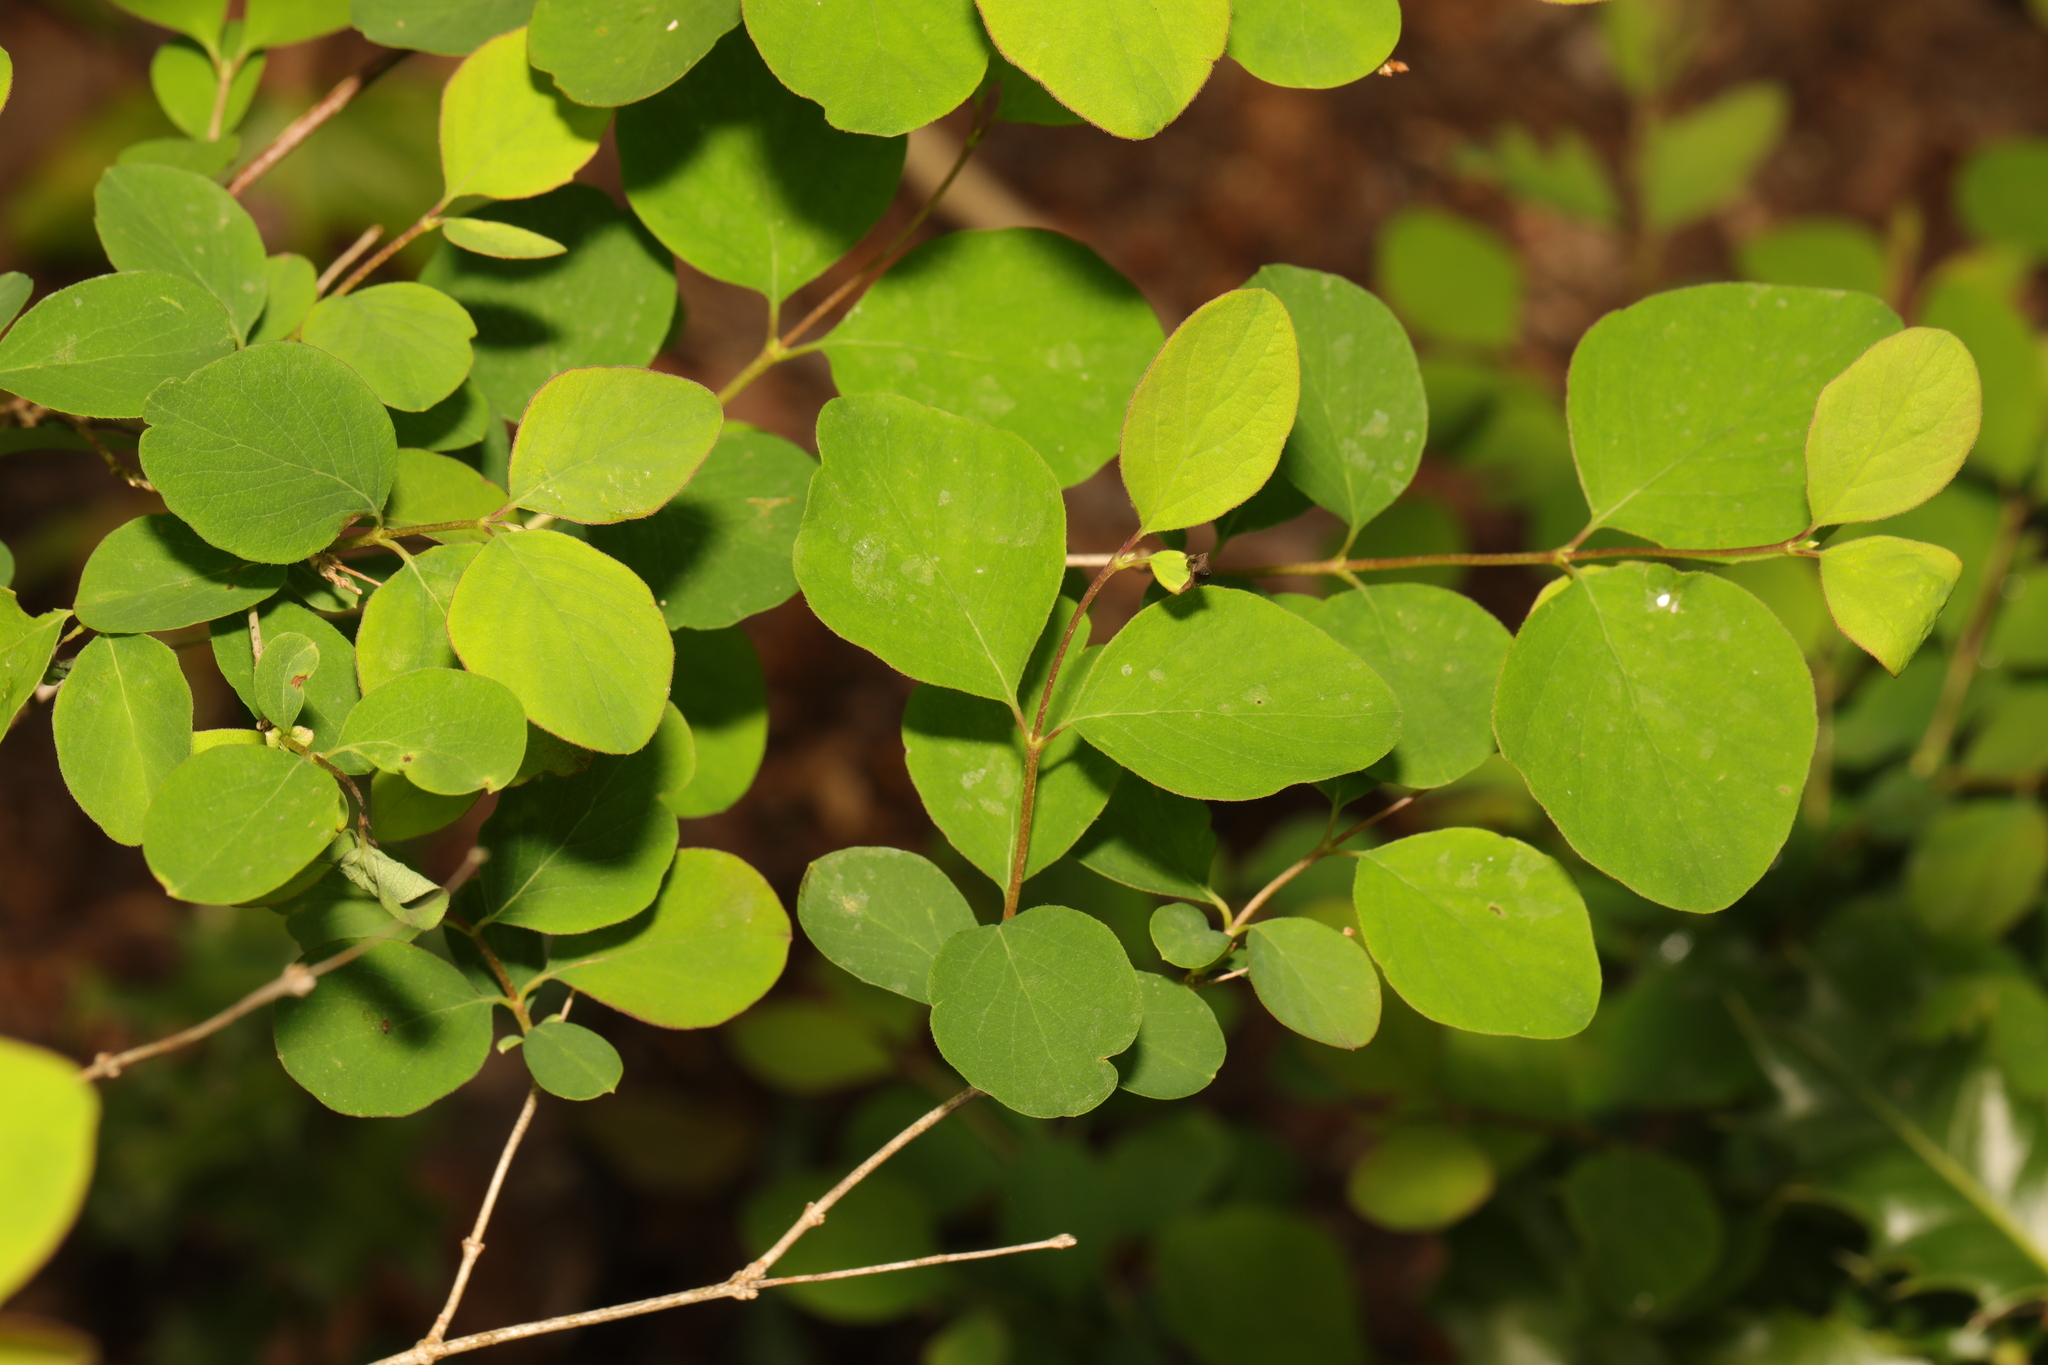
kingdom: Plantae
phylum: Tracheophyta
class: Magnoliopsida
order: Dipsacales
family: Caprifoliaceae
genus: Symphoricarpos
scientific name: Symphoricarpos albus
